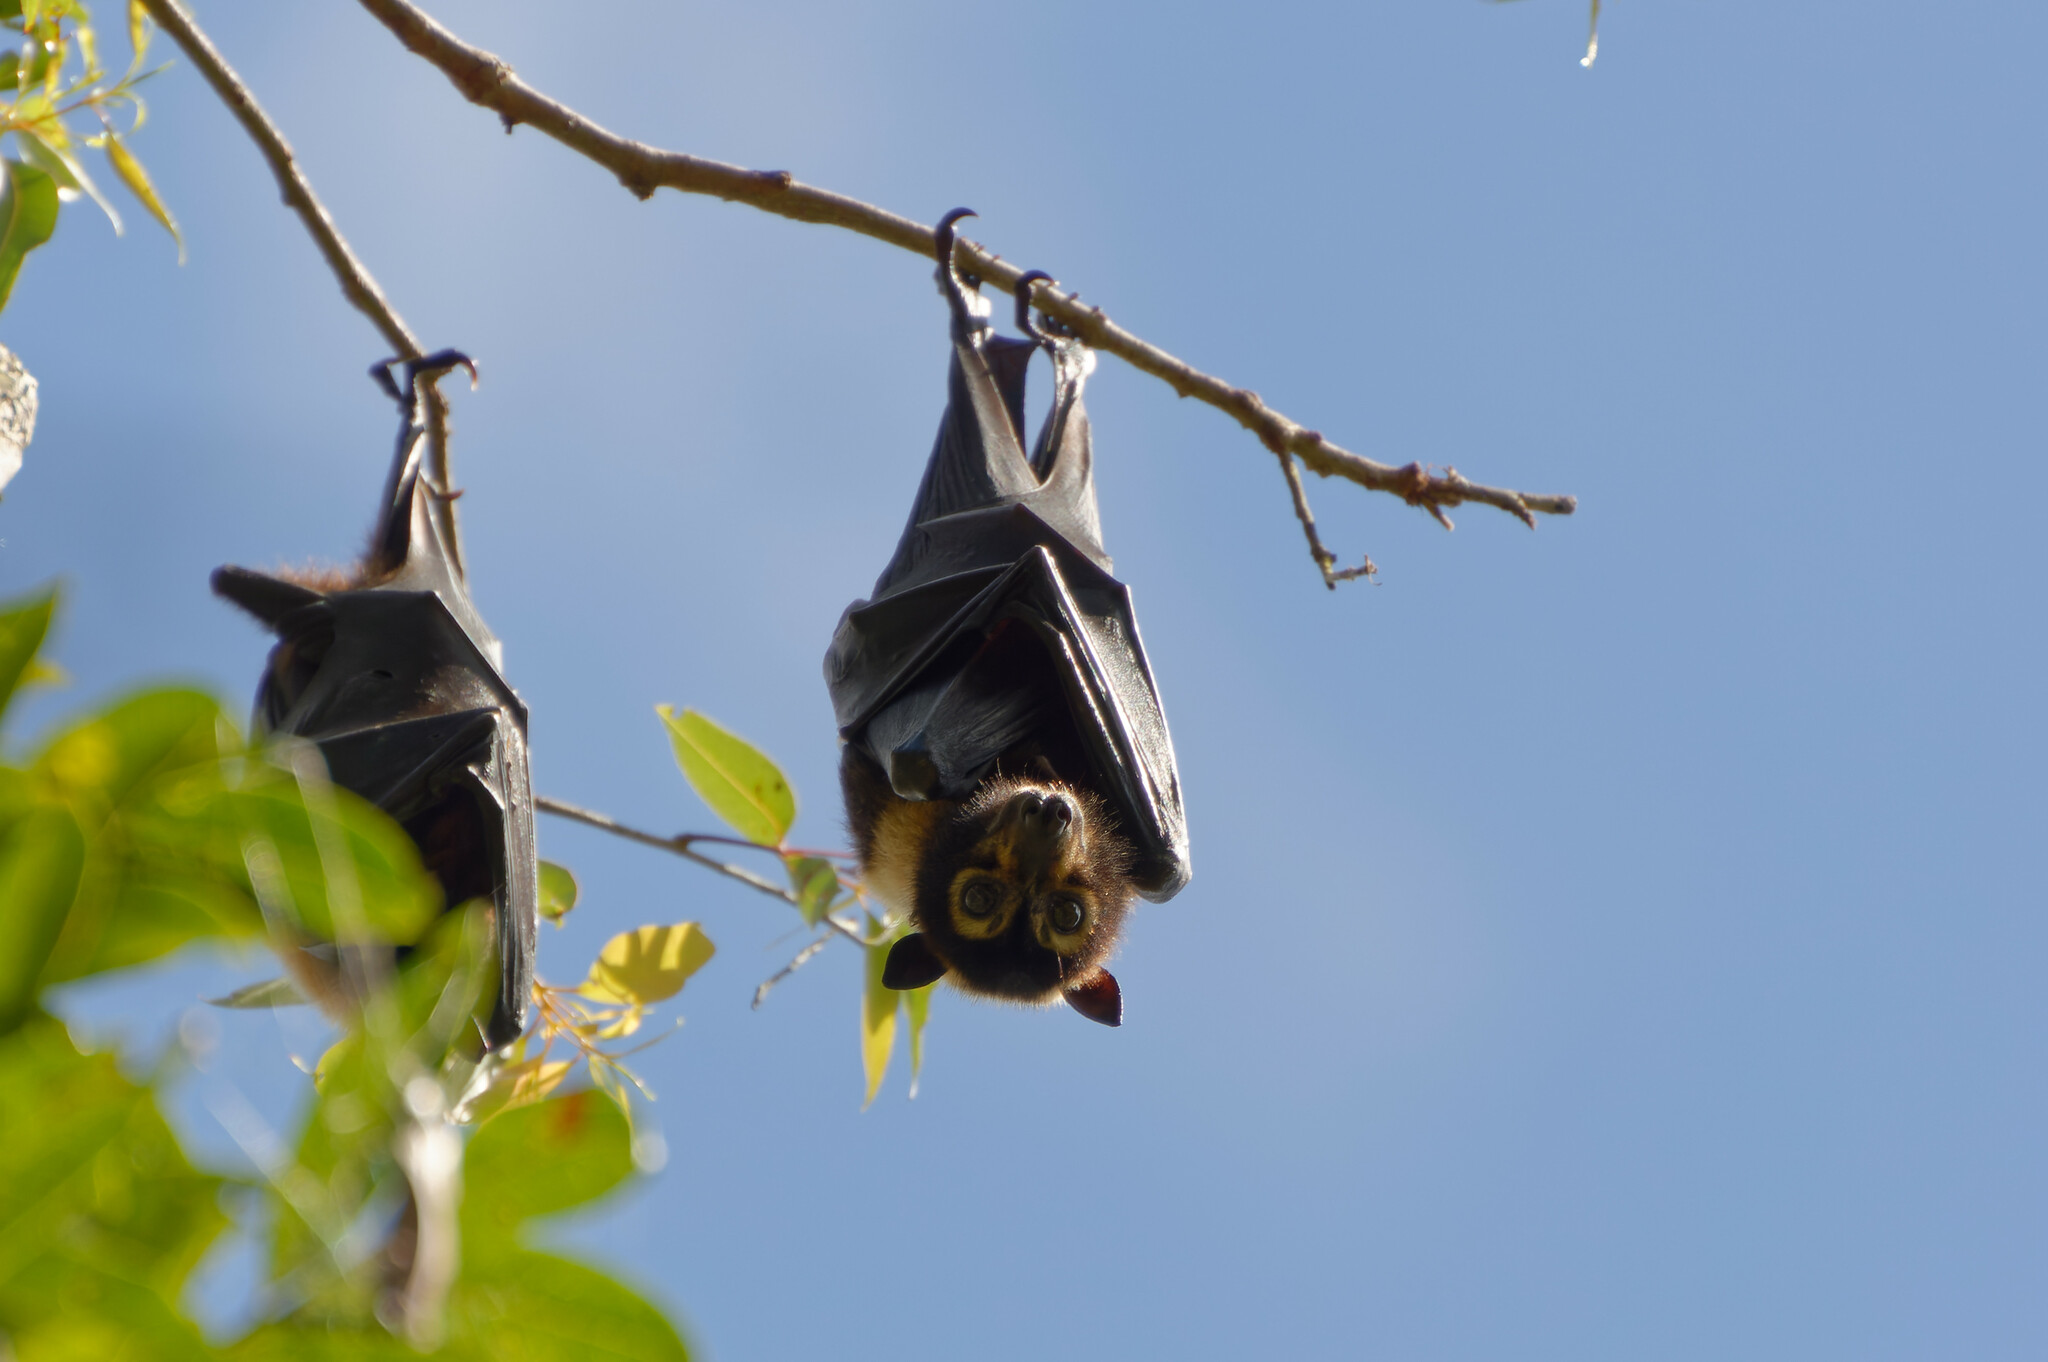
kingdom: Animalia
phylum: Chordata
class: Mammalia
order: Chiroptera
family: Pteropodidae
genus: Pteropus
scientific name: Pteropus conspicillatus
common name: Spectacled flying fox
